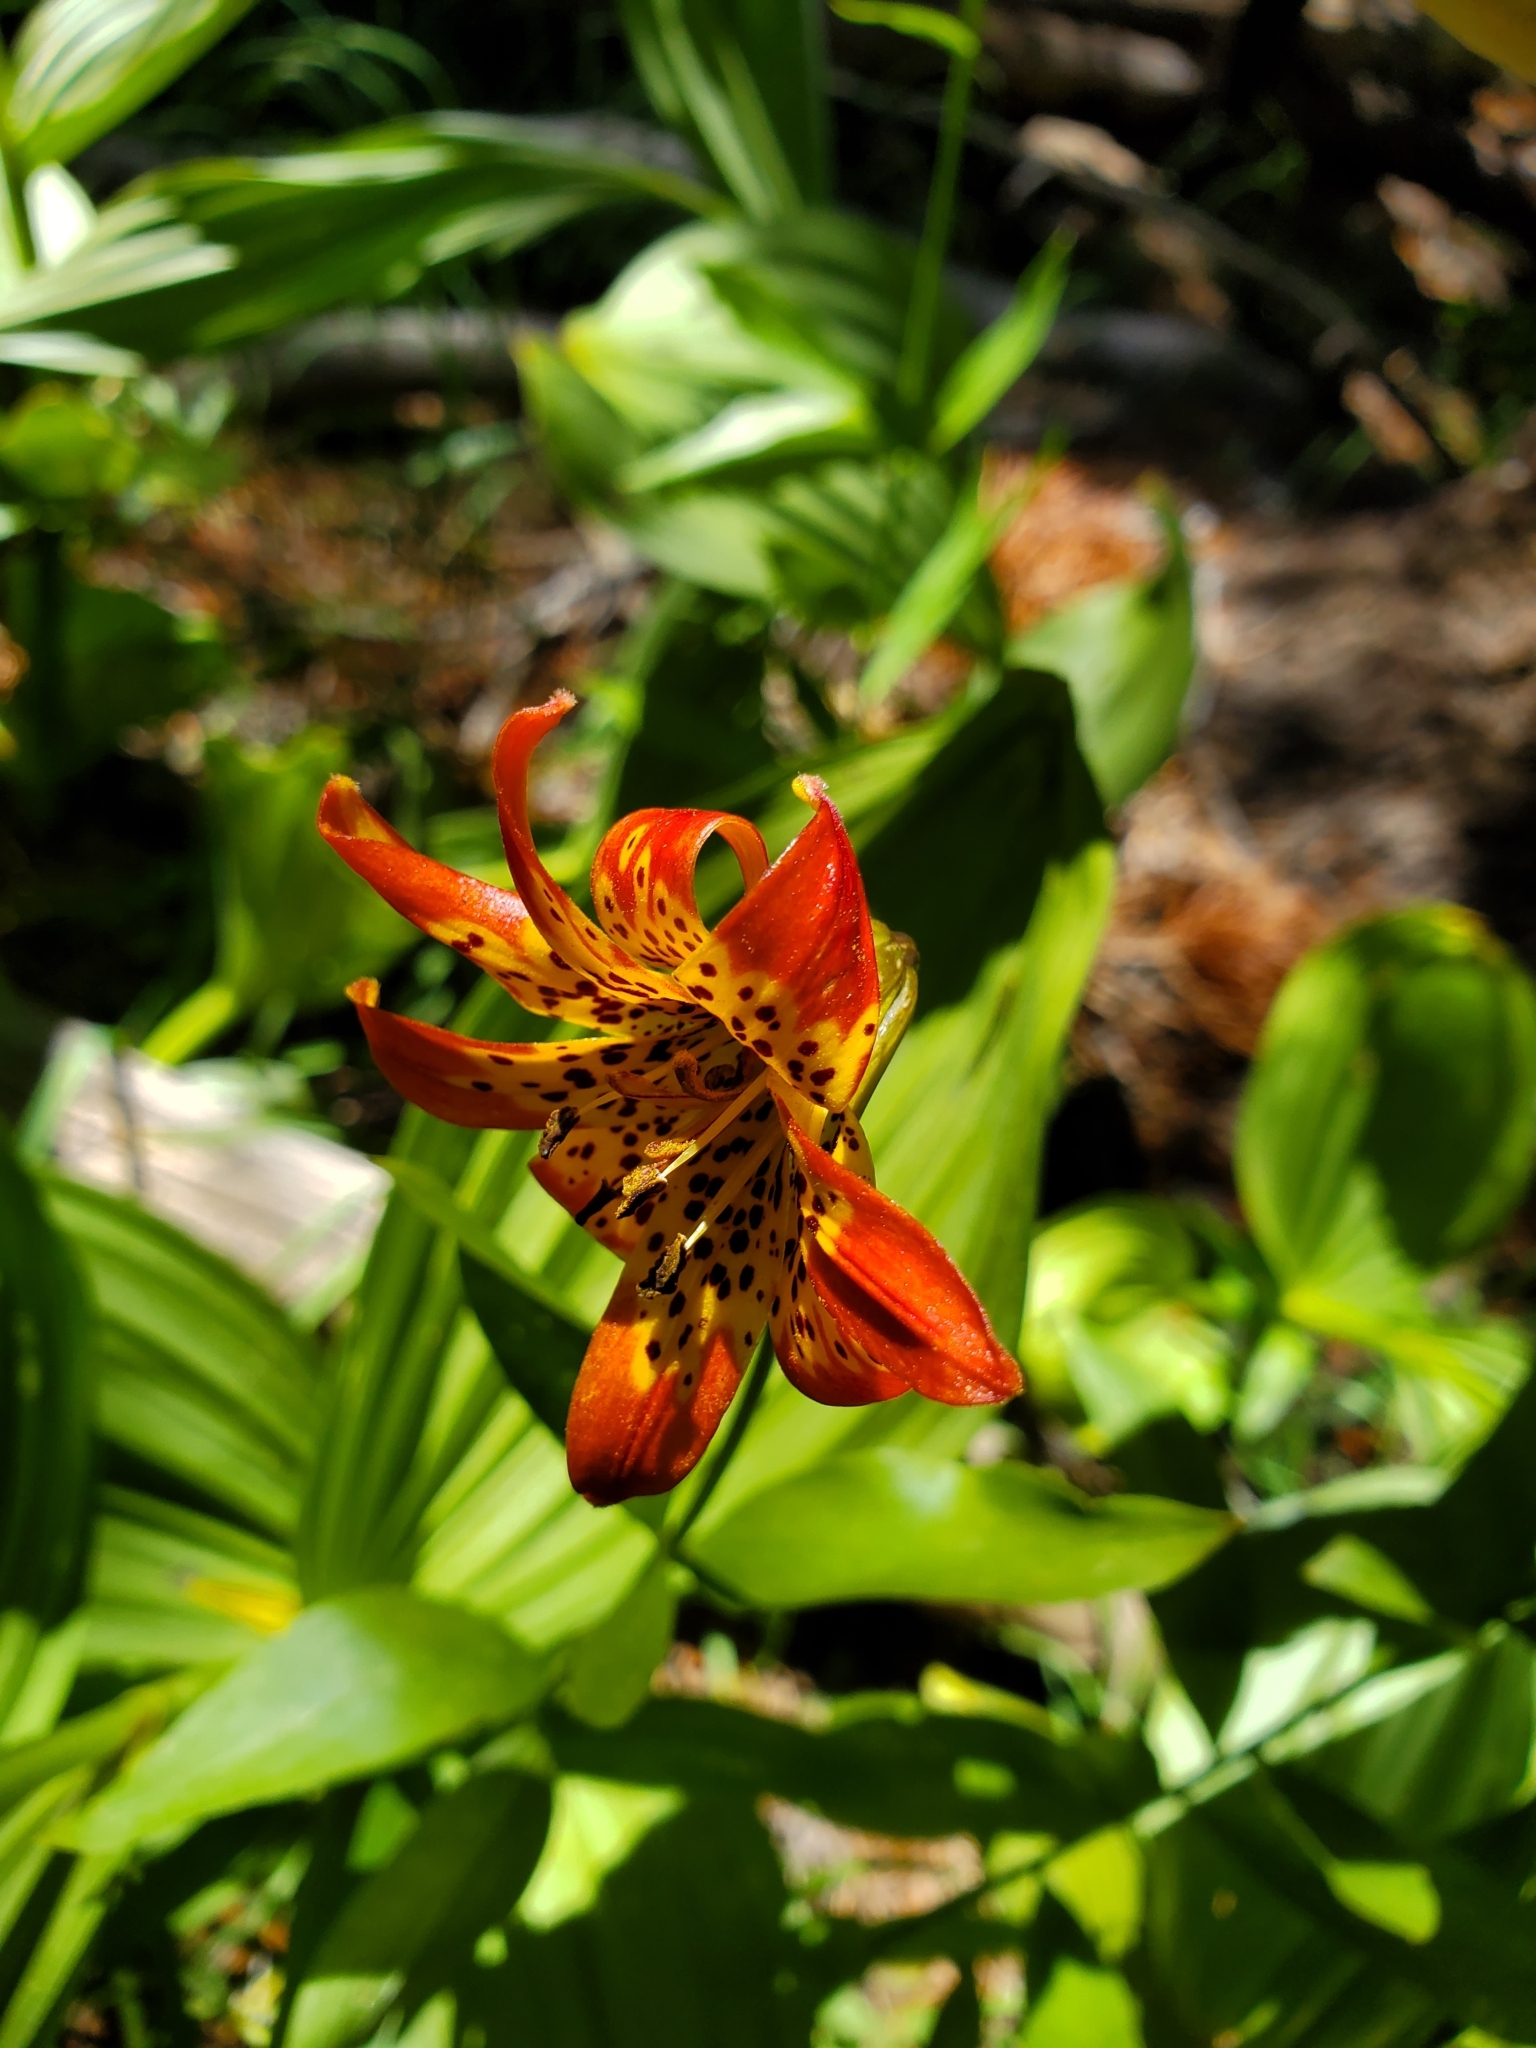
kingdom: Plantae
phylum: Tracheophyta
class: Liliopsida
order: Liliales
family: Liliaceae
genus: Lilium
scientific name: Lilium parvum
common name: Alpine lily
